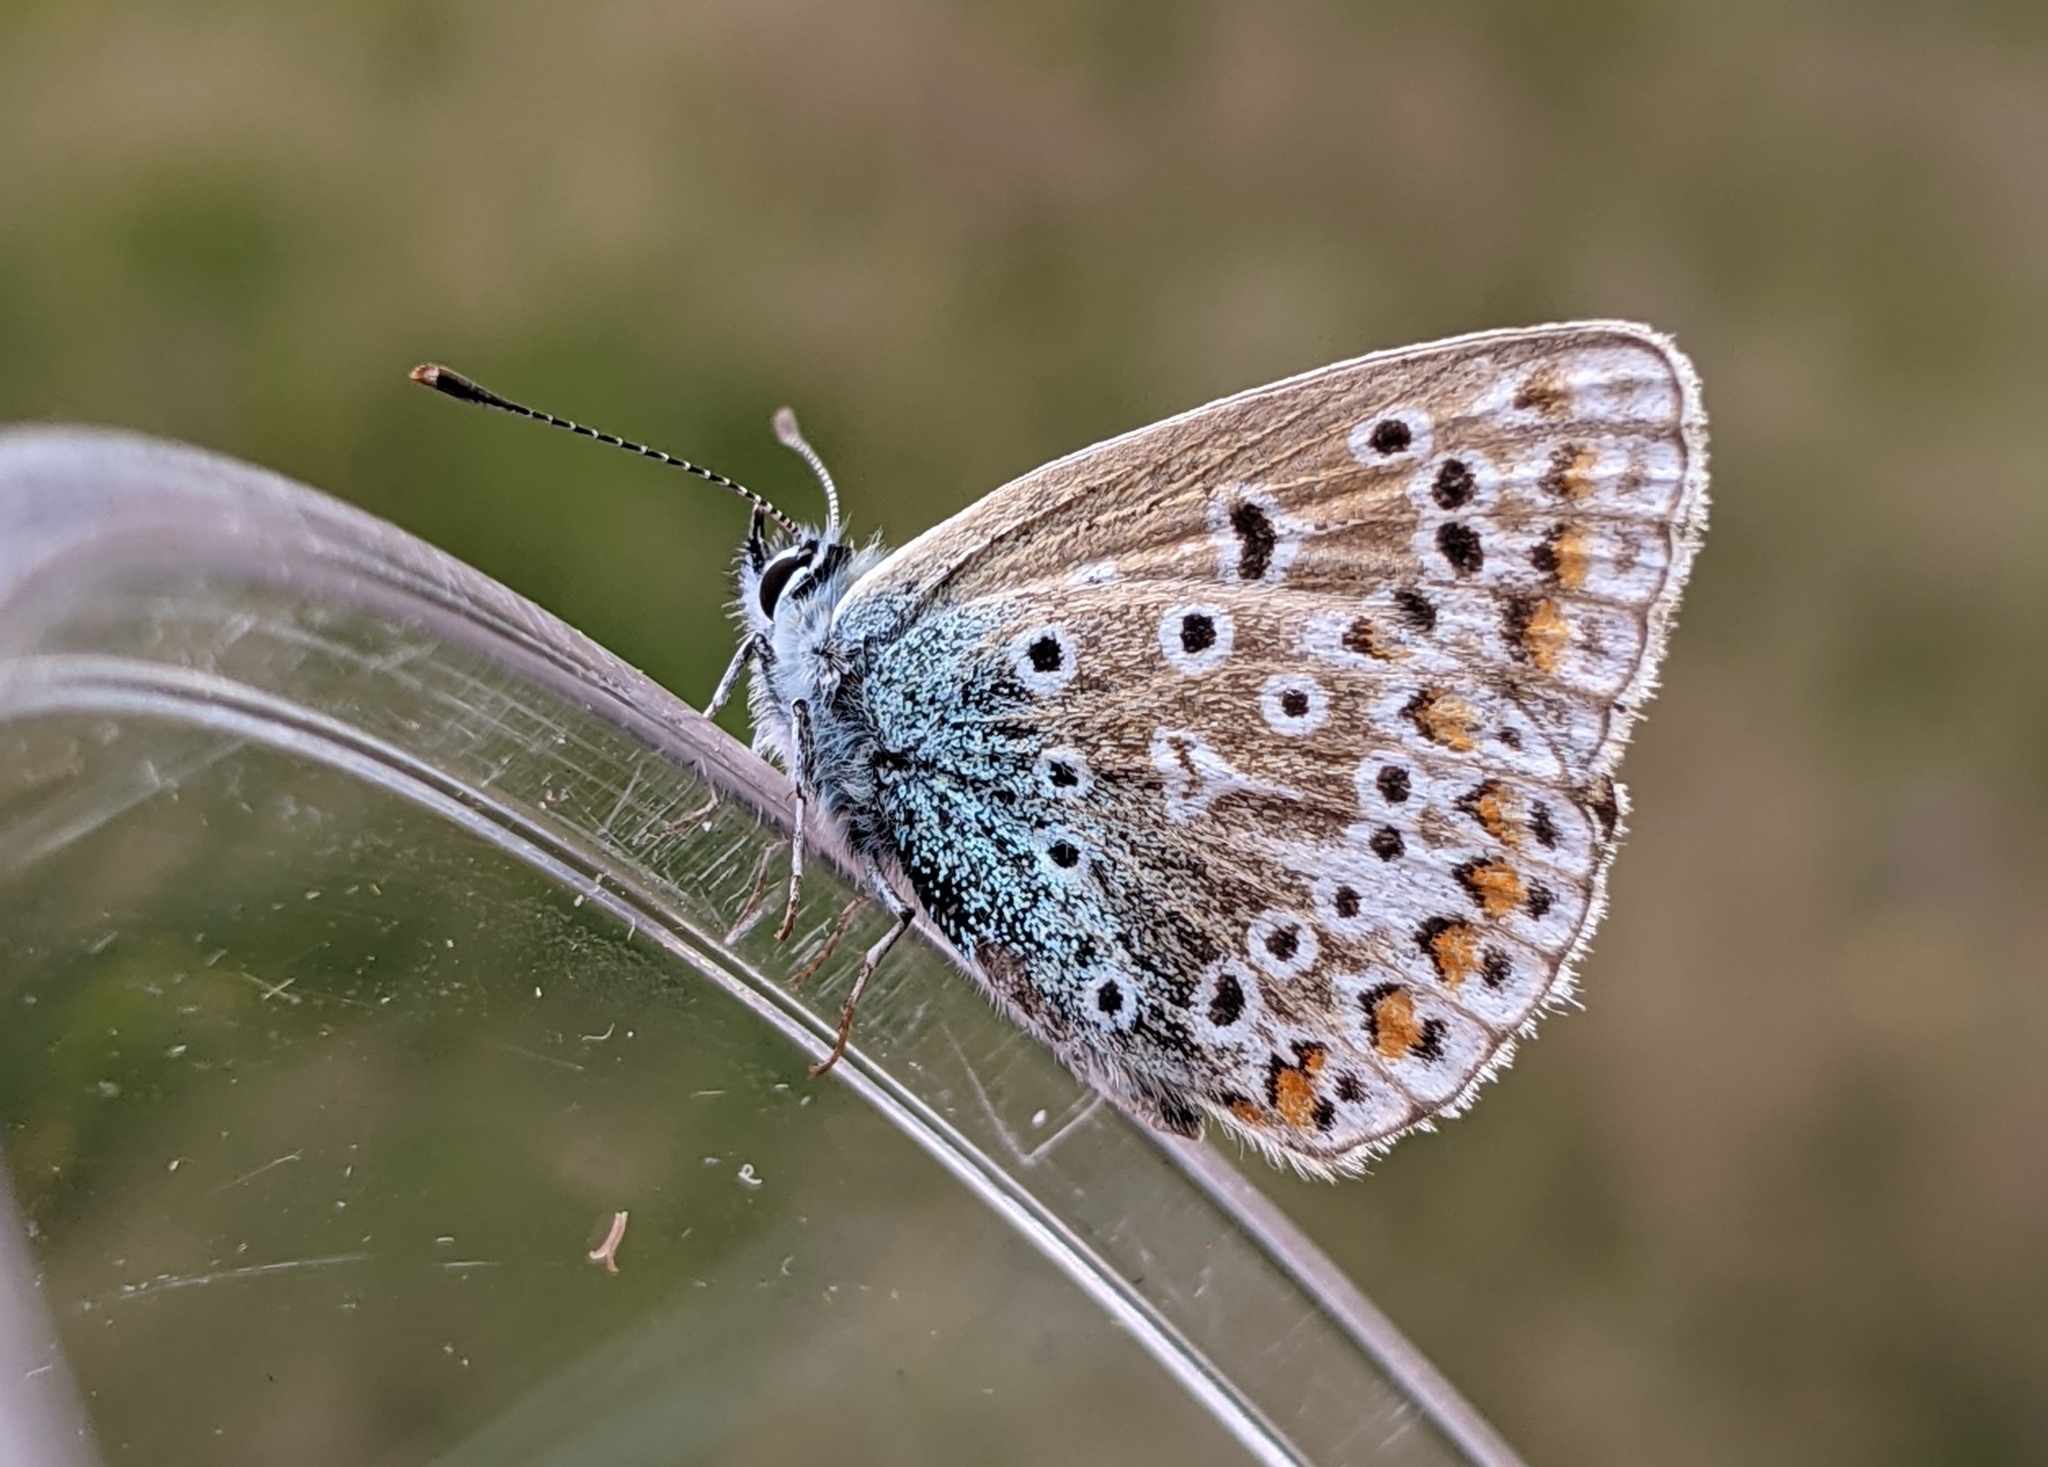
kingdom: Animalia
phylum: Arthropoda
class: Insecta
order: Lepidoptera
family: Lycaenidae
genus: Polyommatus
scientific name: Polyommatus icarus
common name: Common blue
